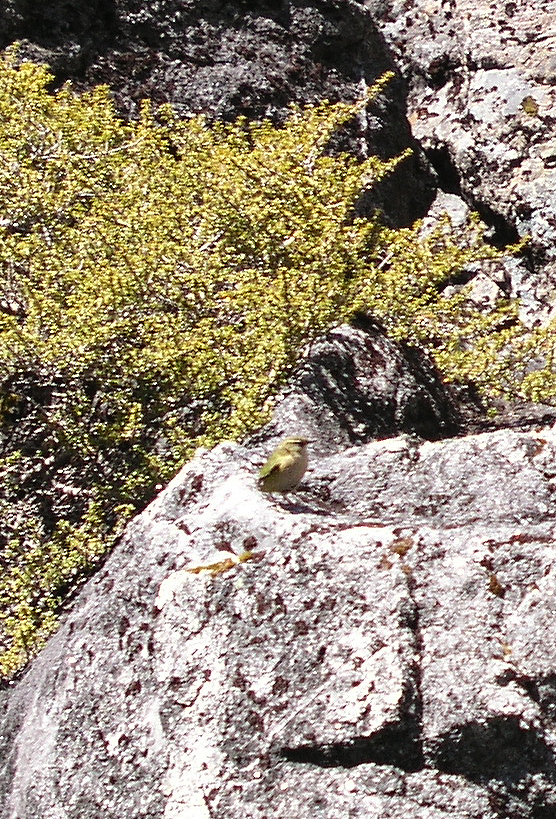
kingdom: Animalia
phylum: Chordata
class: Aves
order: Passeriformes
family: Acanthisittidae
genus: Xenicus
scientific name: Xenicus gilviventris
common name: New zealand rockwren
